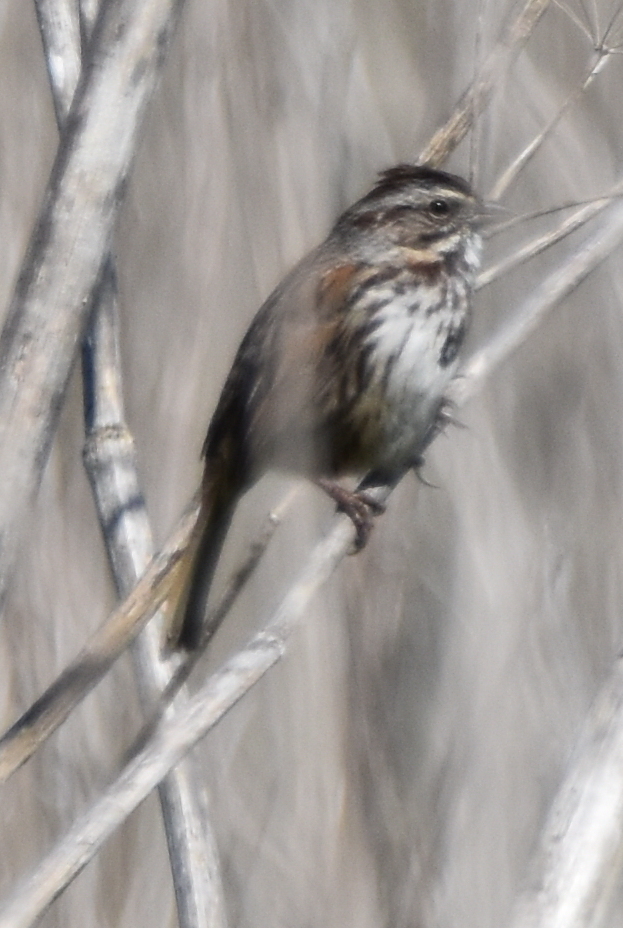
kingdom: Animalia
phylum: Chordata
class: Aves
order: Passeriformes
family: Passerellidae
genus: Melospiza
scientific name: Melospiza melodia
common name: Song sparrow
